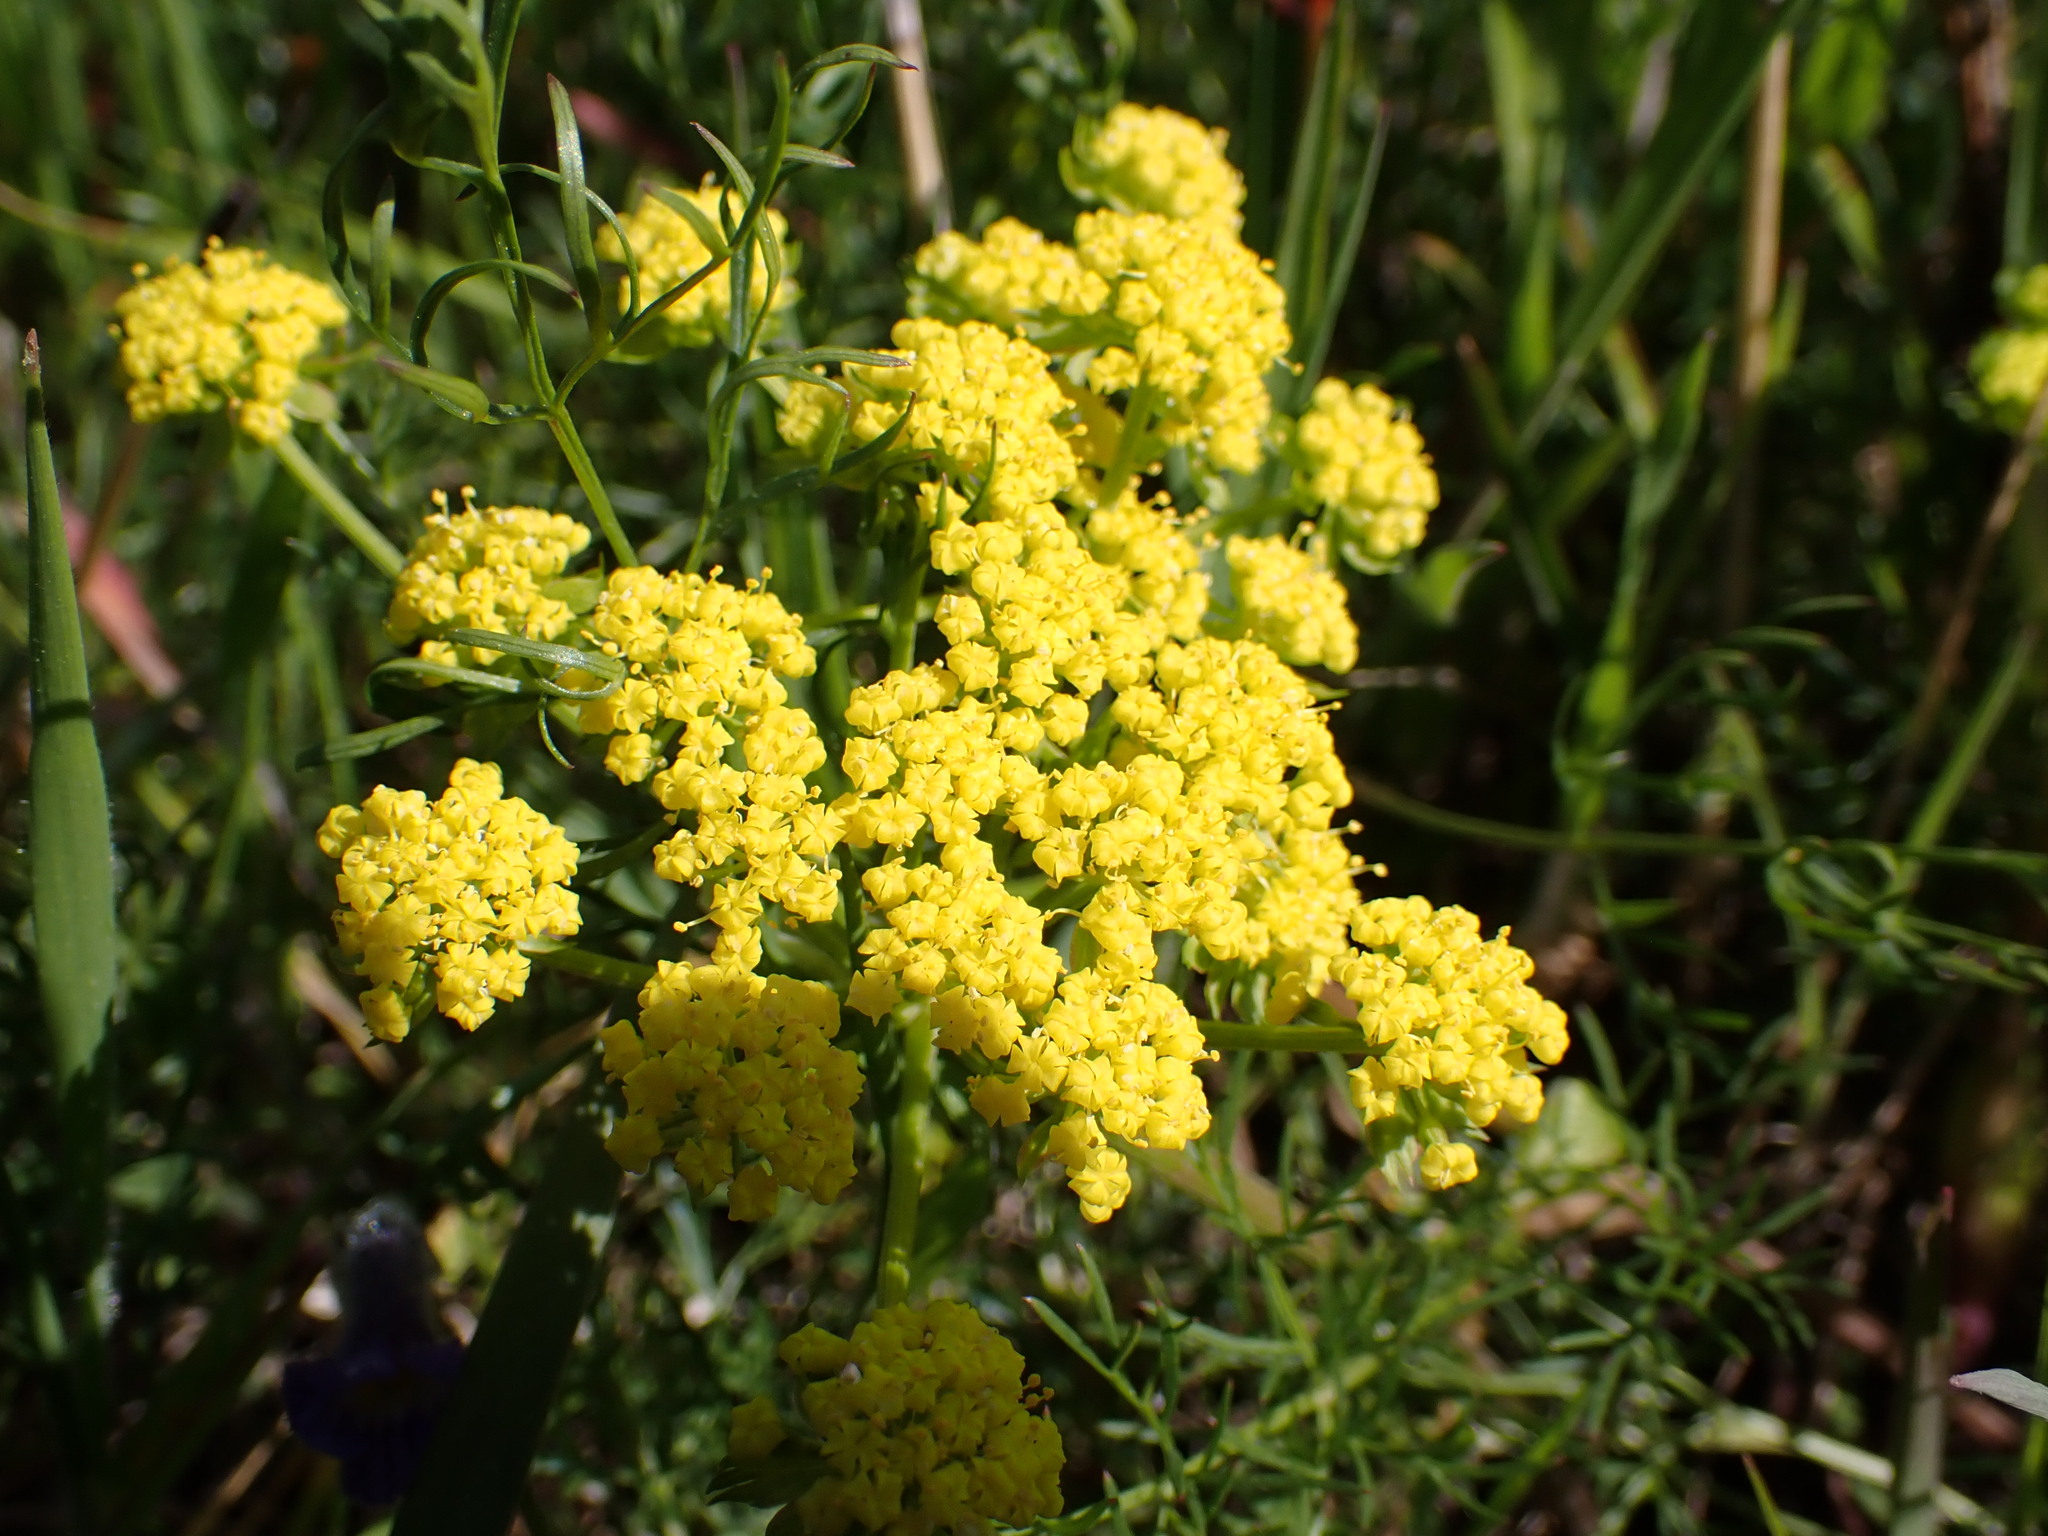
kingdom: Plantae
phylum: Tracheophyta
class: Magnoliopsida
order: Apiales
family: Apiaceae
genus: Lomatium
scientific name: Lomatium utriculatum
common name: Fine-leaf desert-parsley
